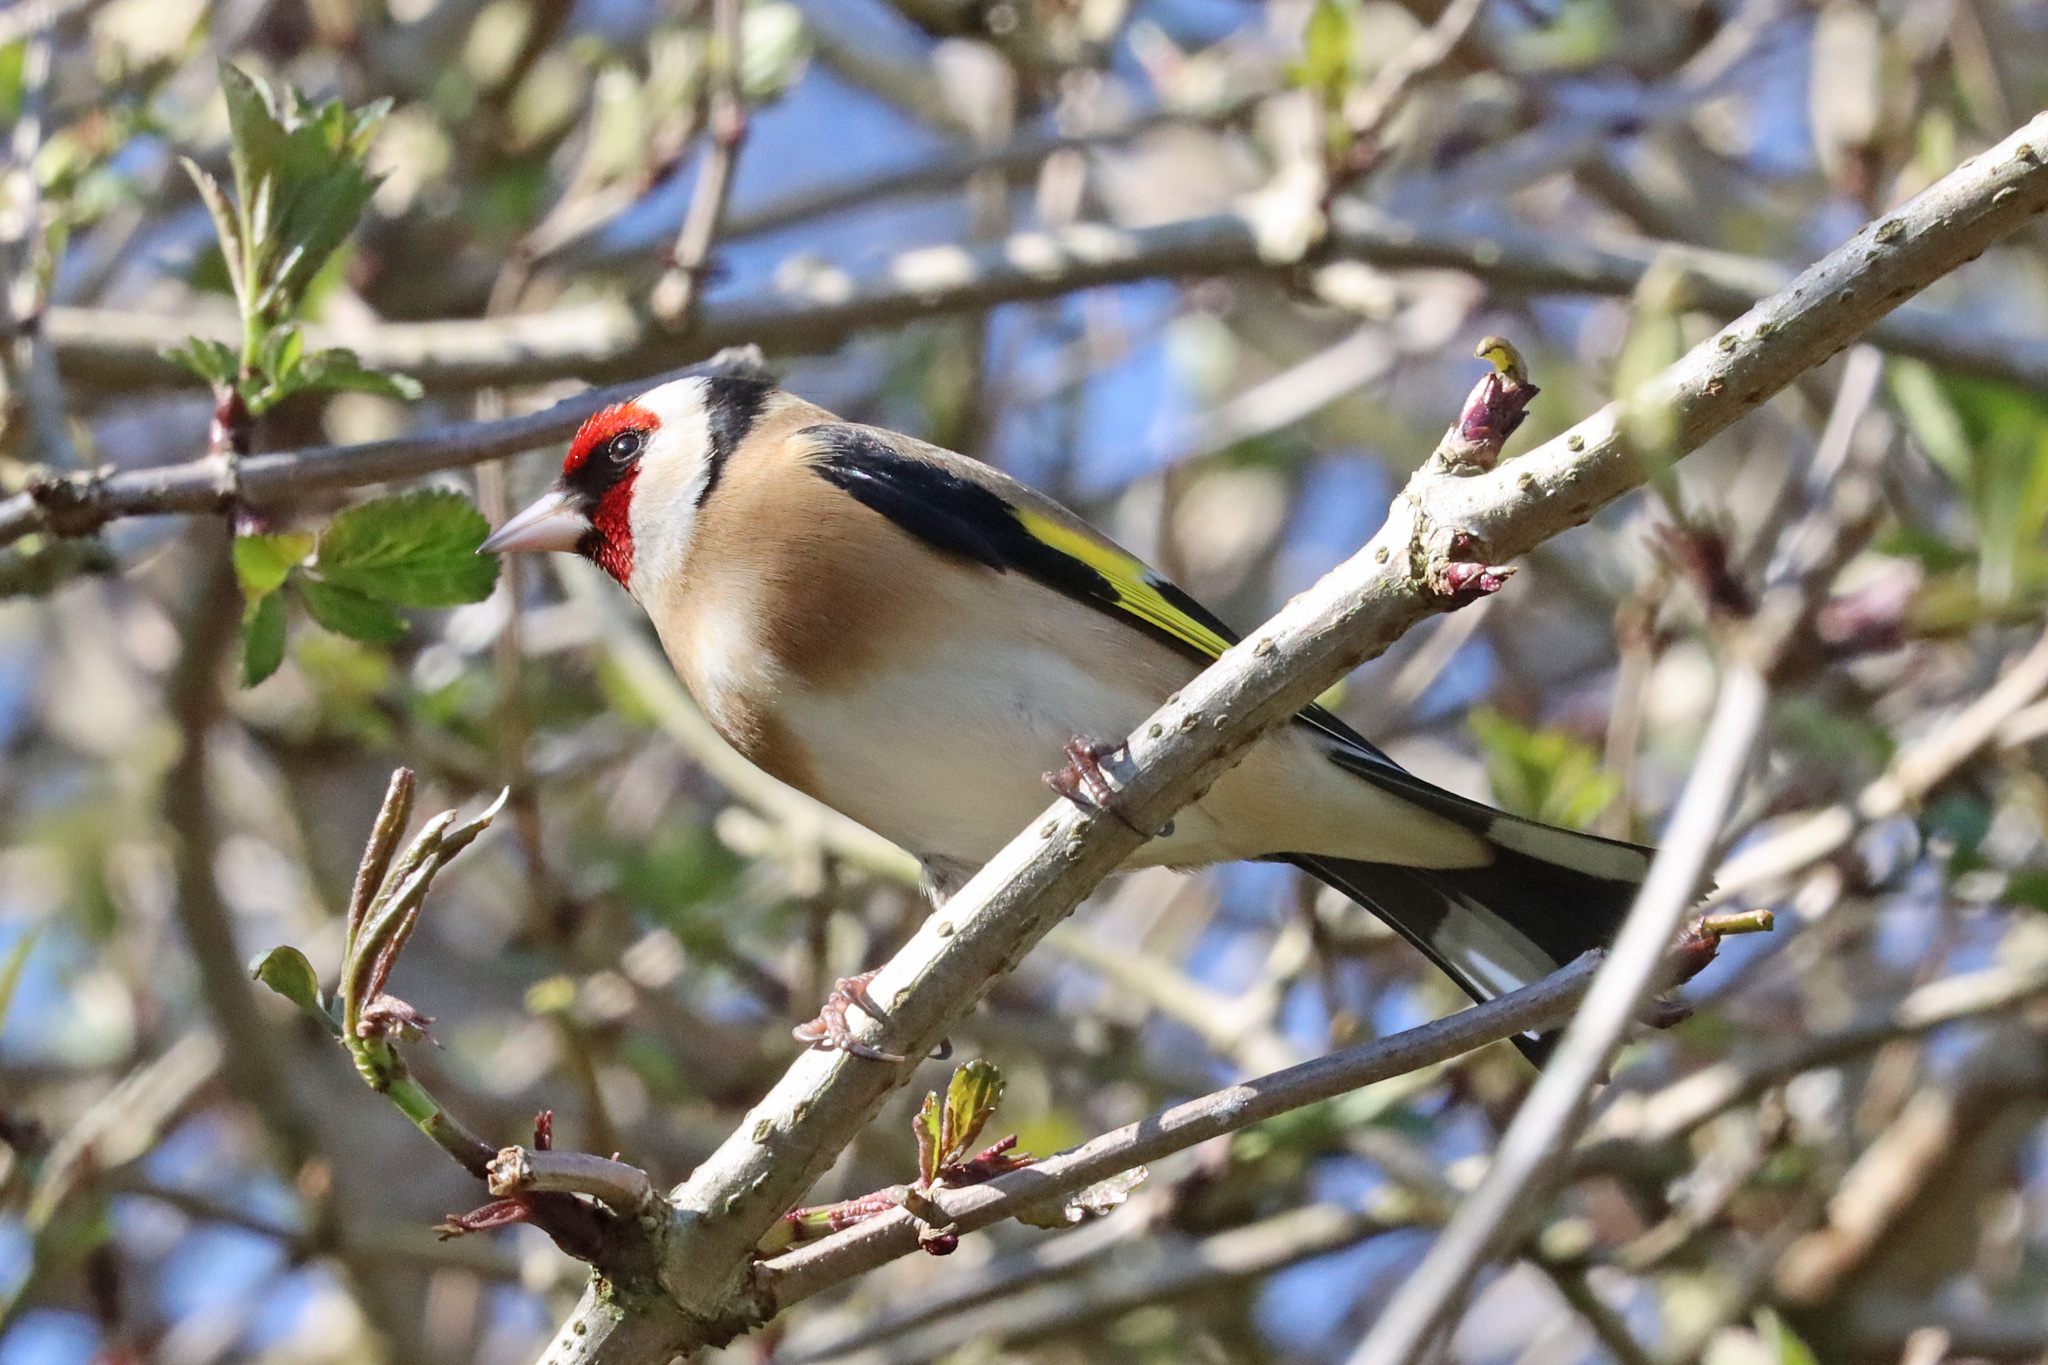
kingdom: Animalia
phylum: Chordata
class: Aves
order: Passeriformes
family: Fringillidae
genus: Carduelis
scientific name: Carduelis carduelis
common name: European goldfinch
